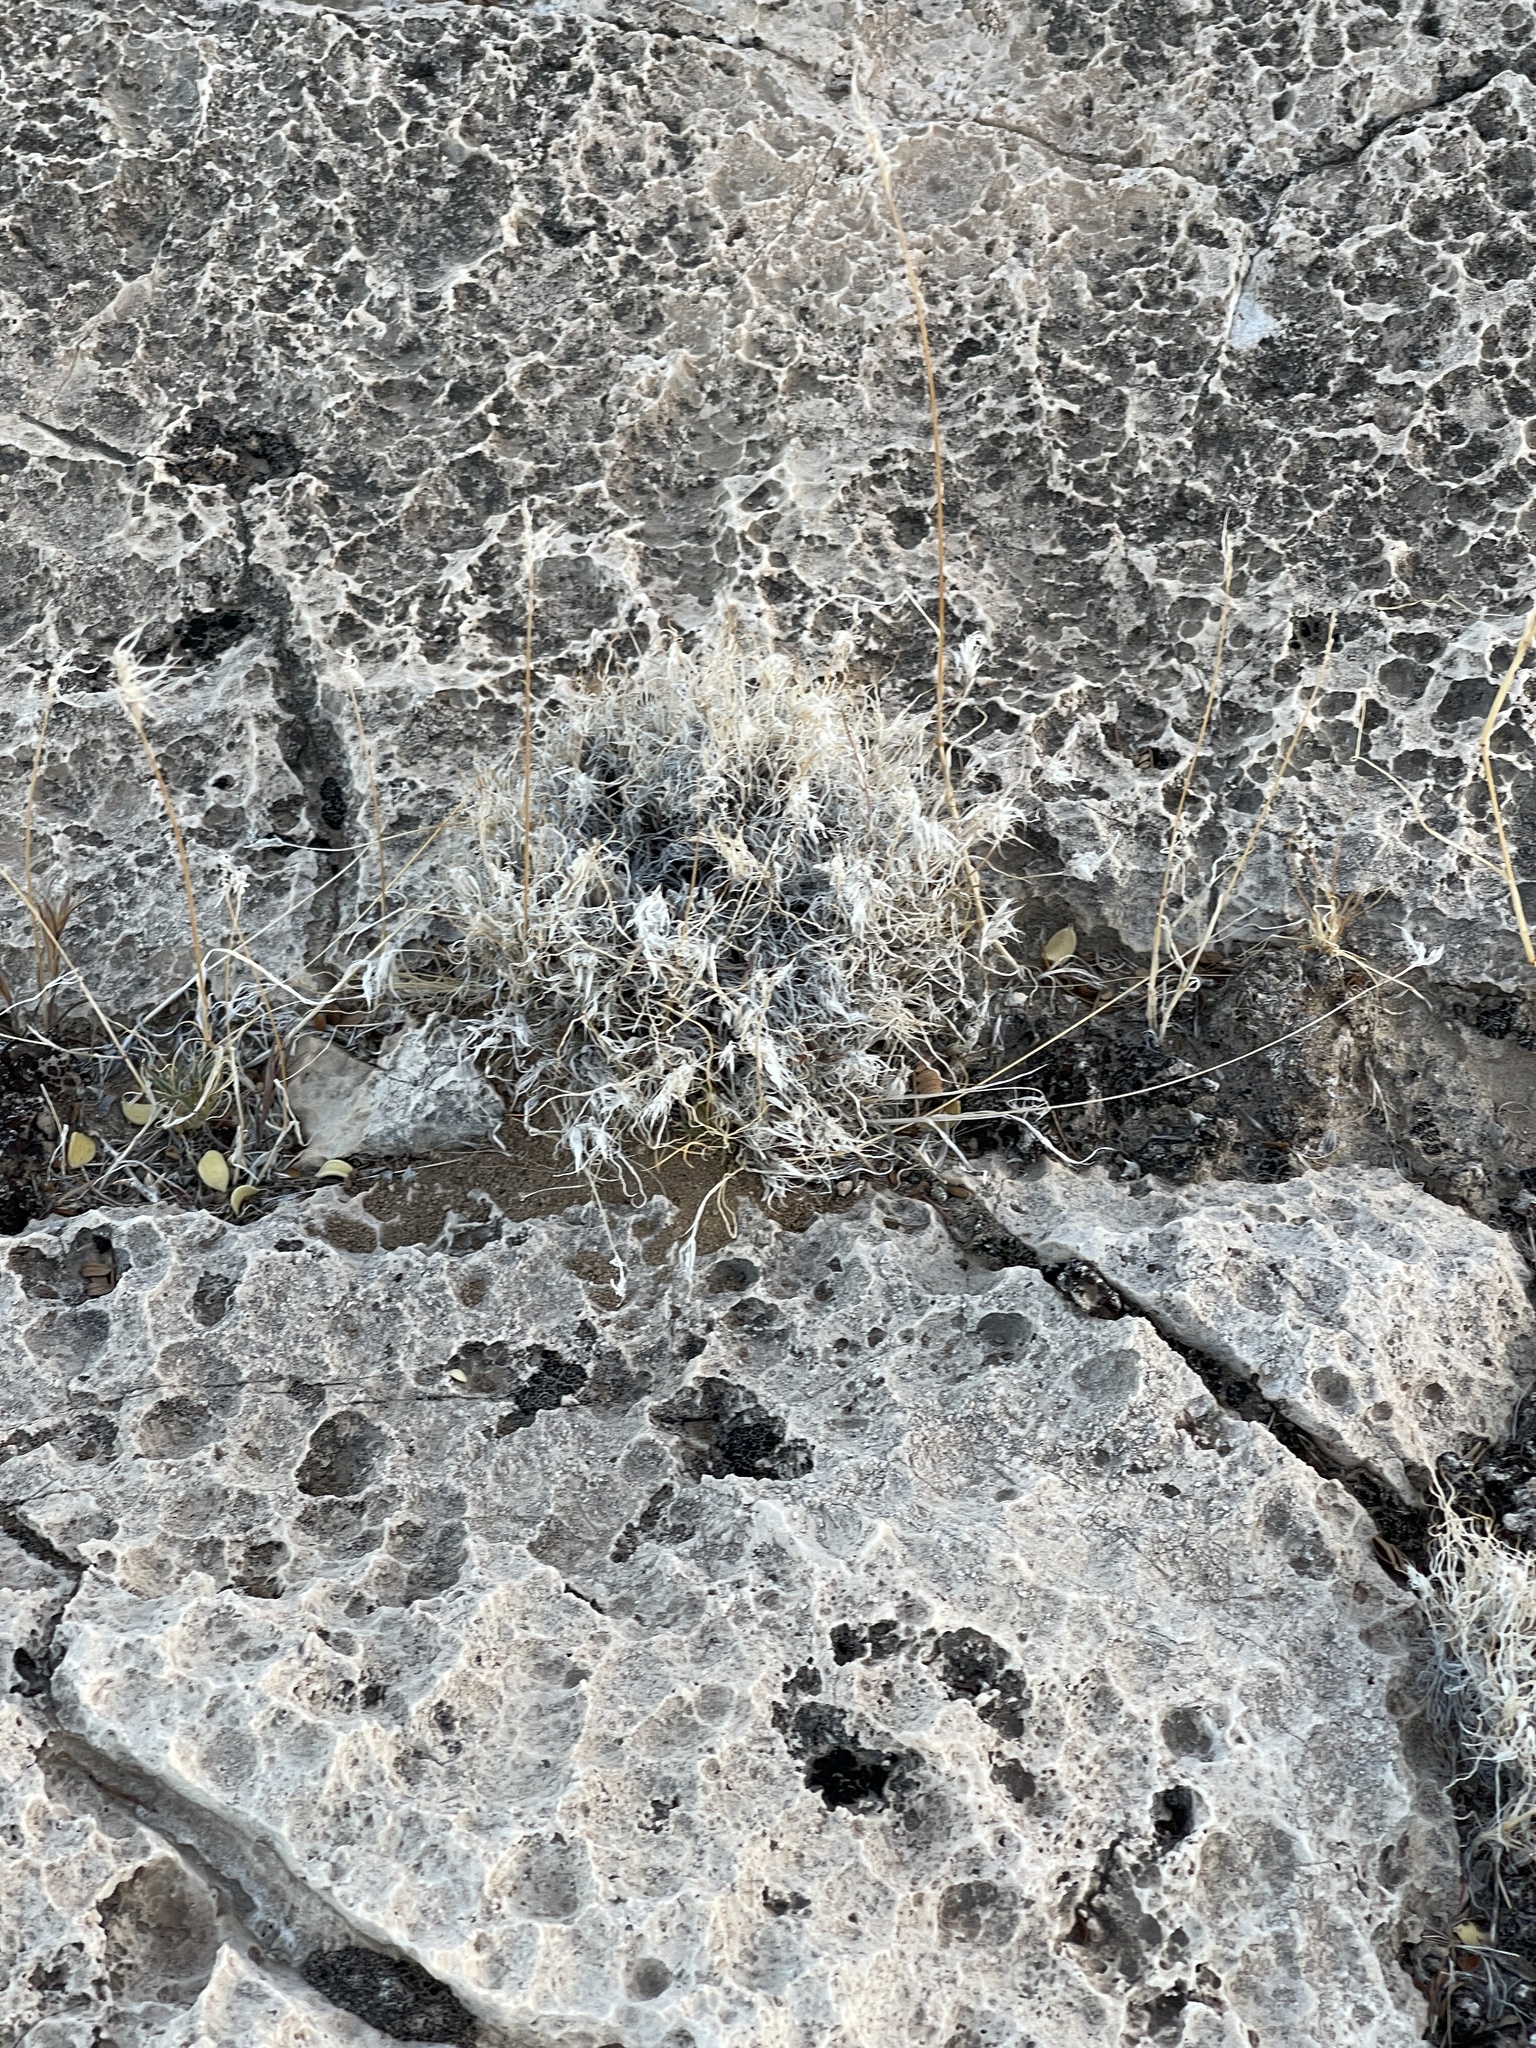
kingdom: Plantae
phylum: Tracheophyta
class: Liliopsida
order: Poales
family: Poaceae
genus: Dasyochloa
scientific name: Dasyochloa pulchella
